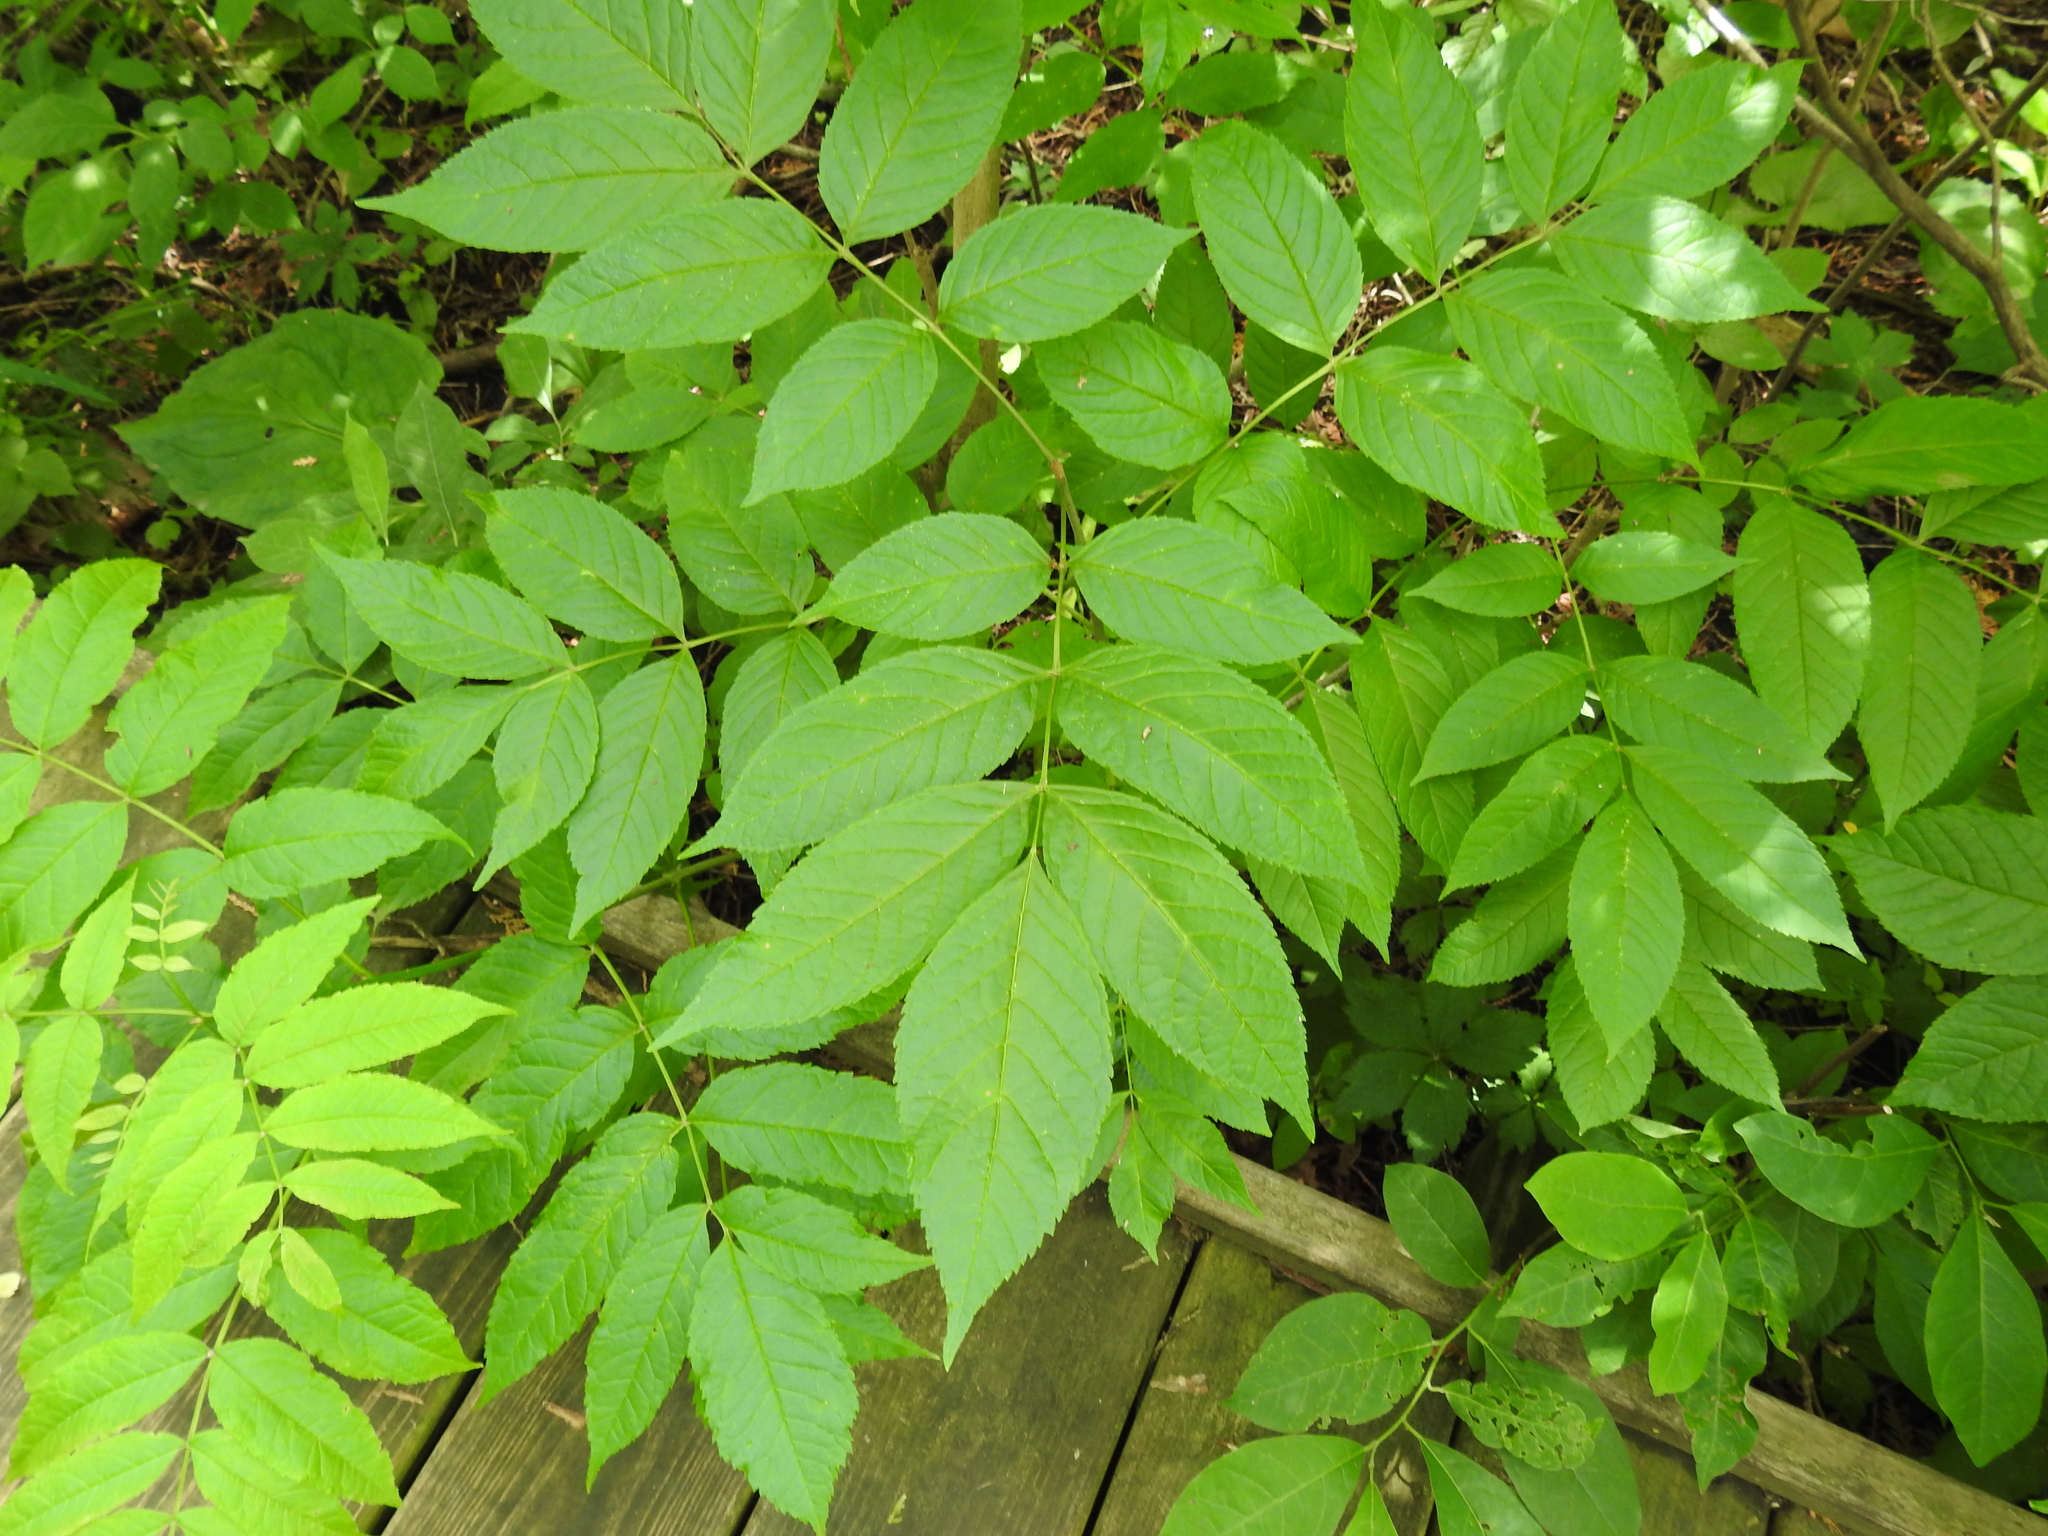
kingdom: Plantae
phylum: Tracheophyta
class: Magnoliopsida
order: Lamiales
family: Oleaceae
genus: Fraxinus
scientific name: Fraxinus nigra
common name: Black ash
